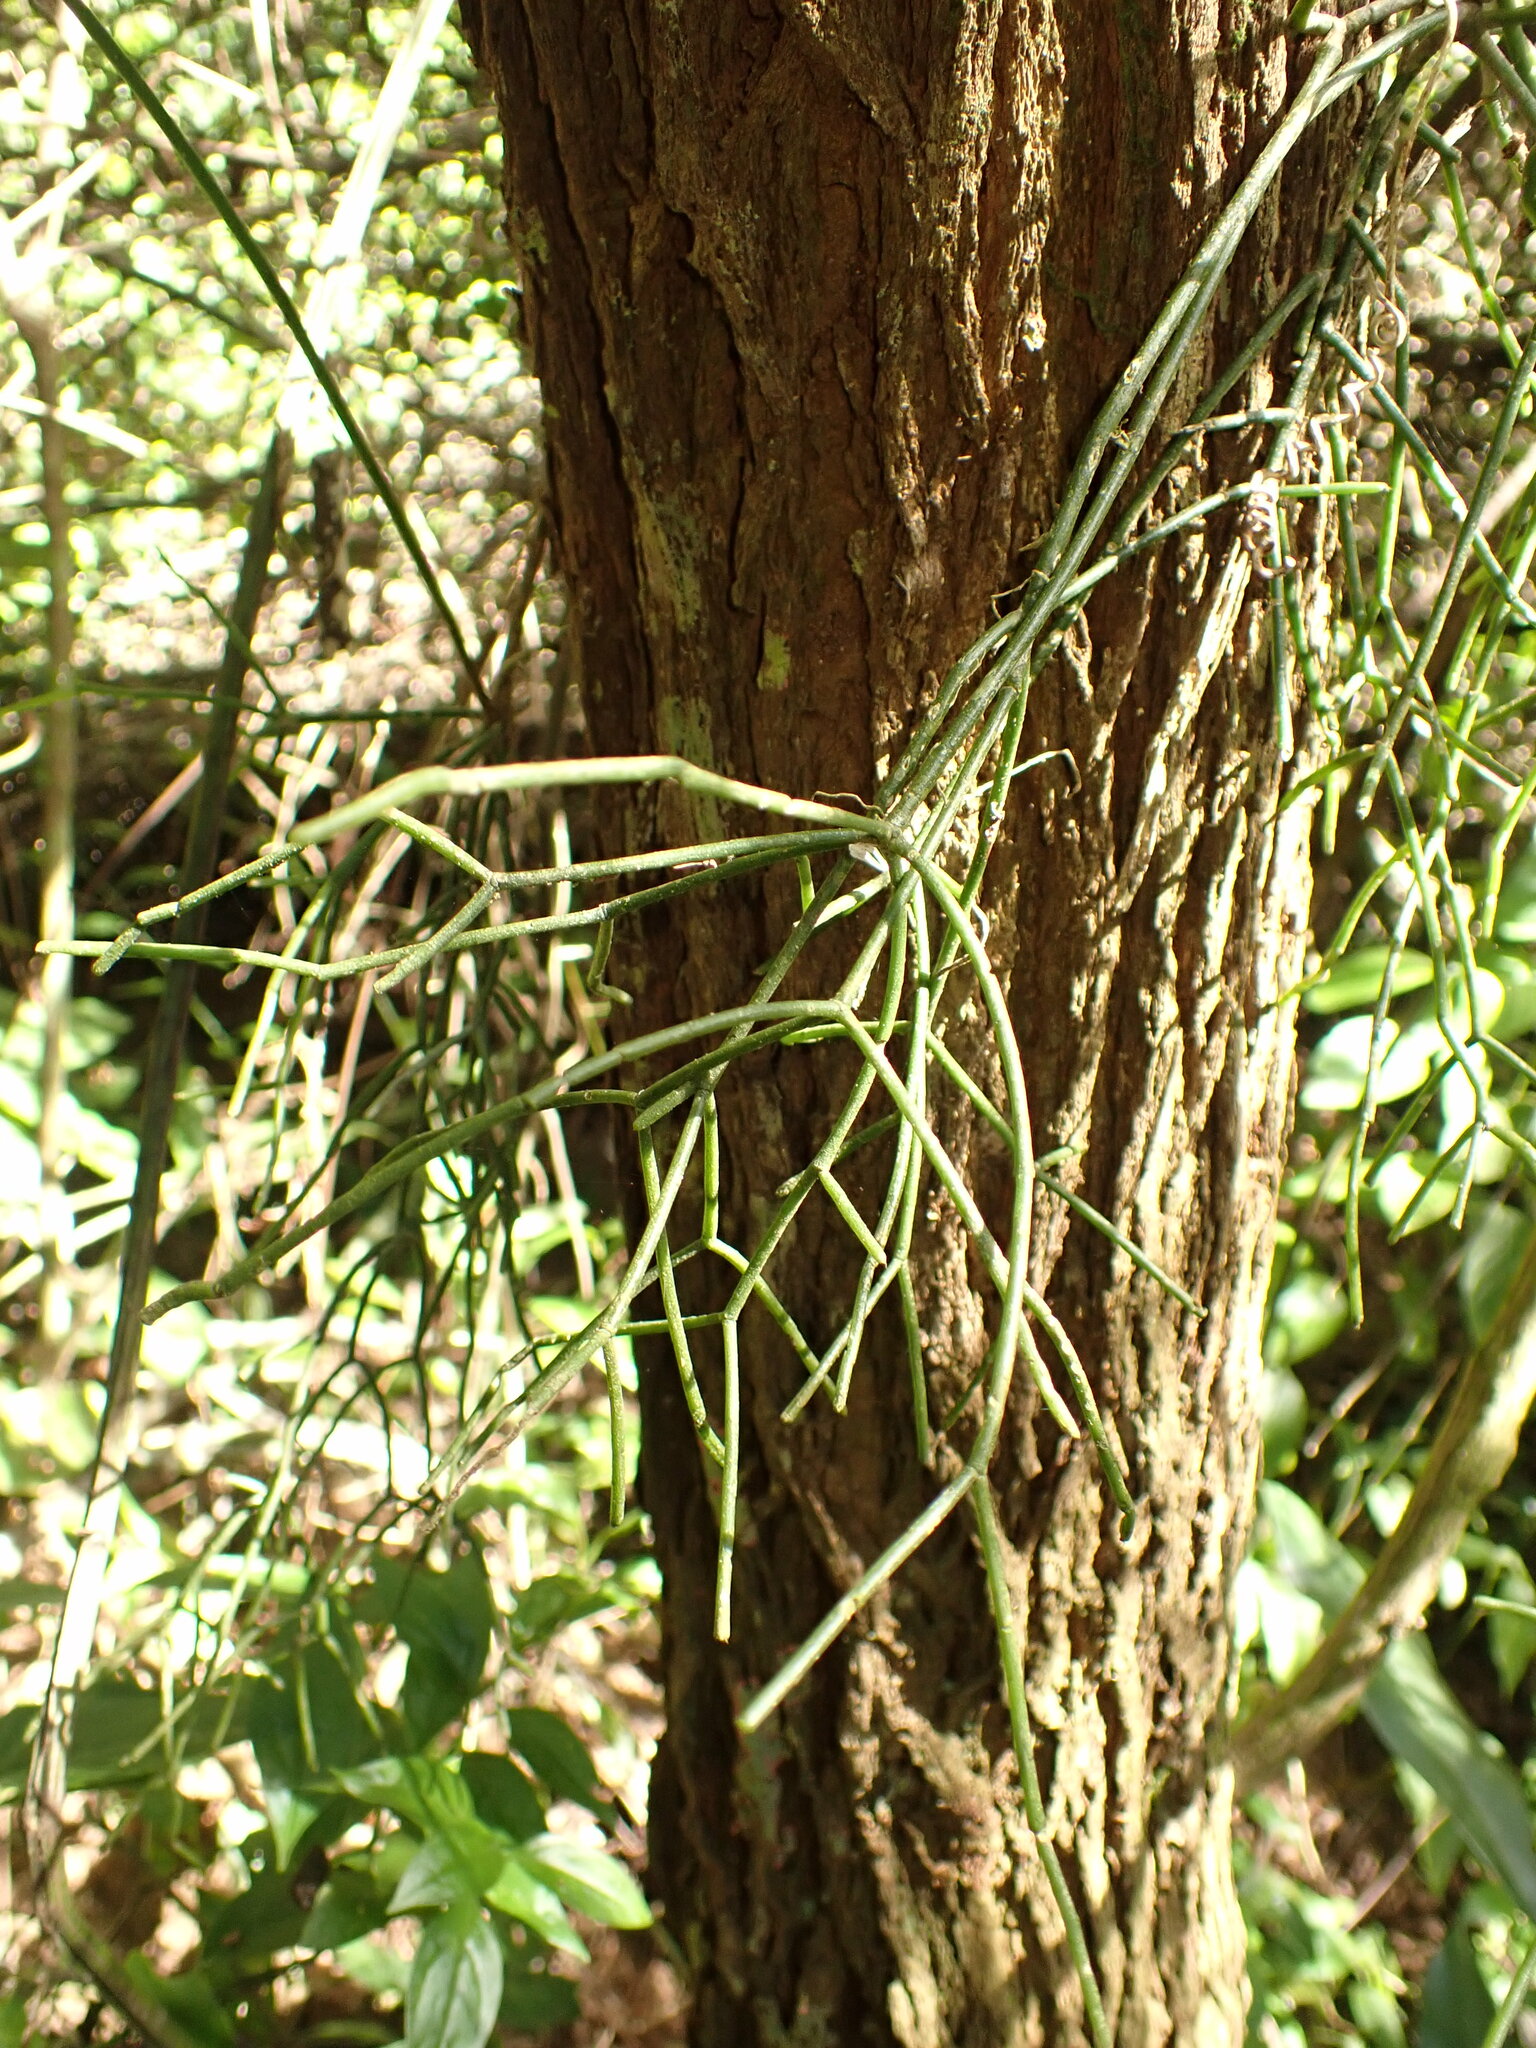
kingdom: Plantae
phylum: Tracheophyta
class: Magnoliopsida
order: Caryophyllales
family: Cactaceae
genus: Rhipsalis
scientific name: Rhipsalis baccifera
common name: Mistletoe cactus
